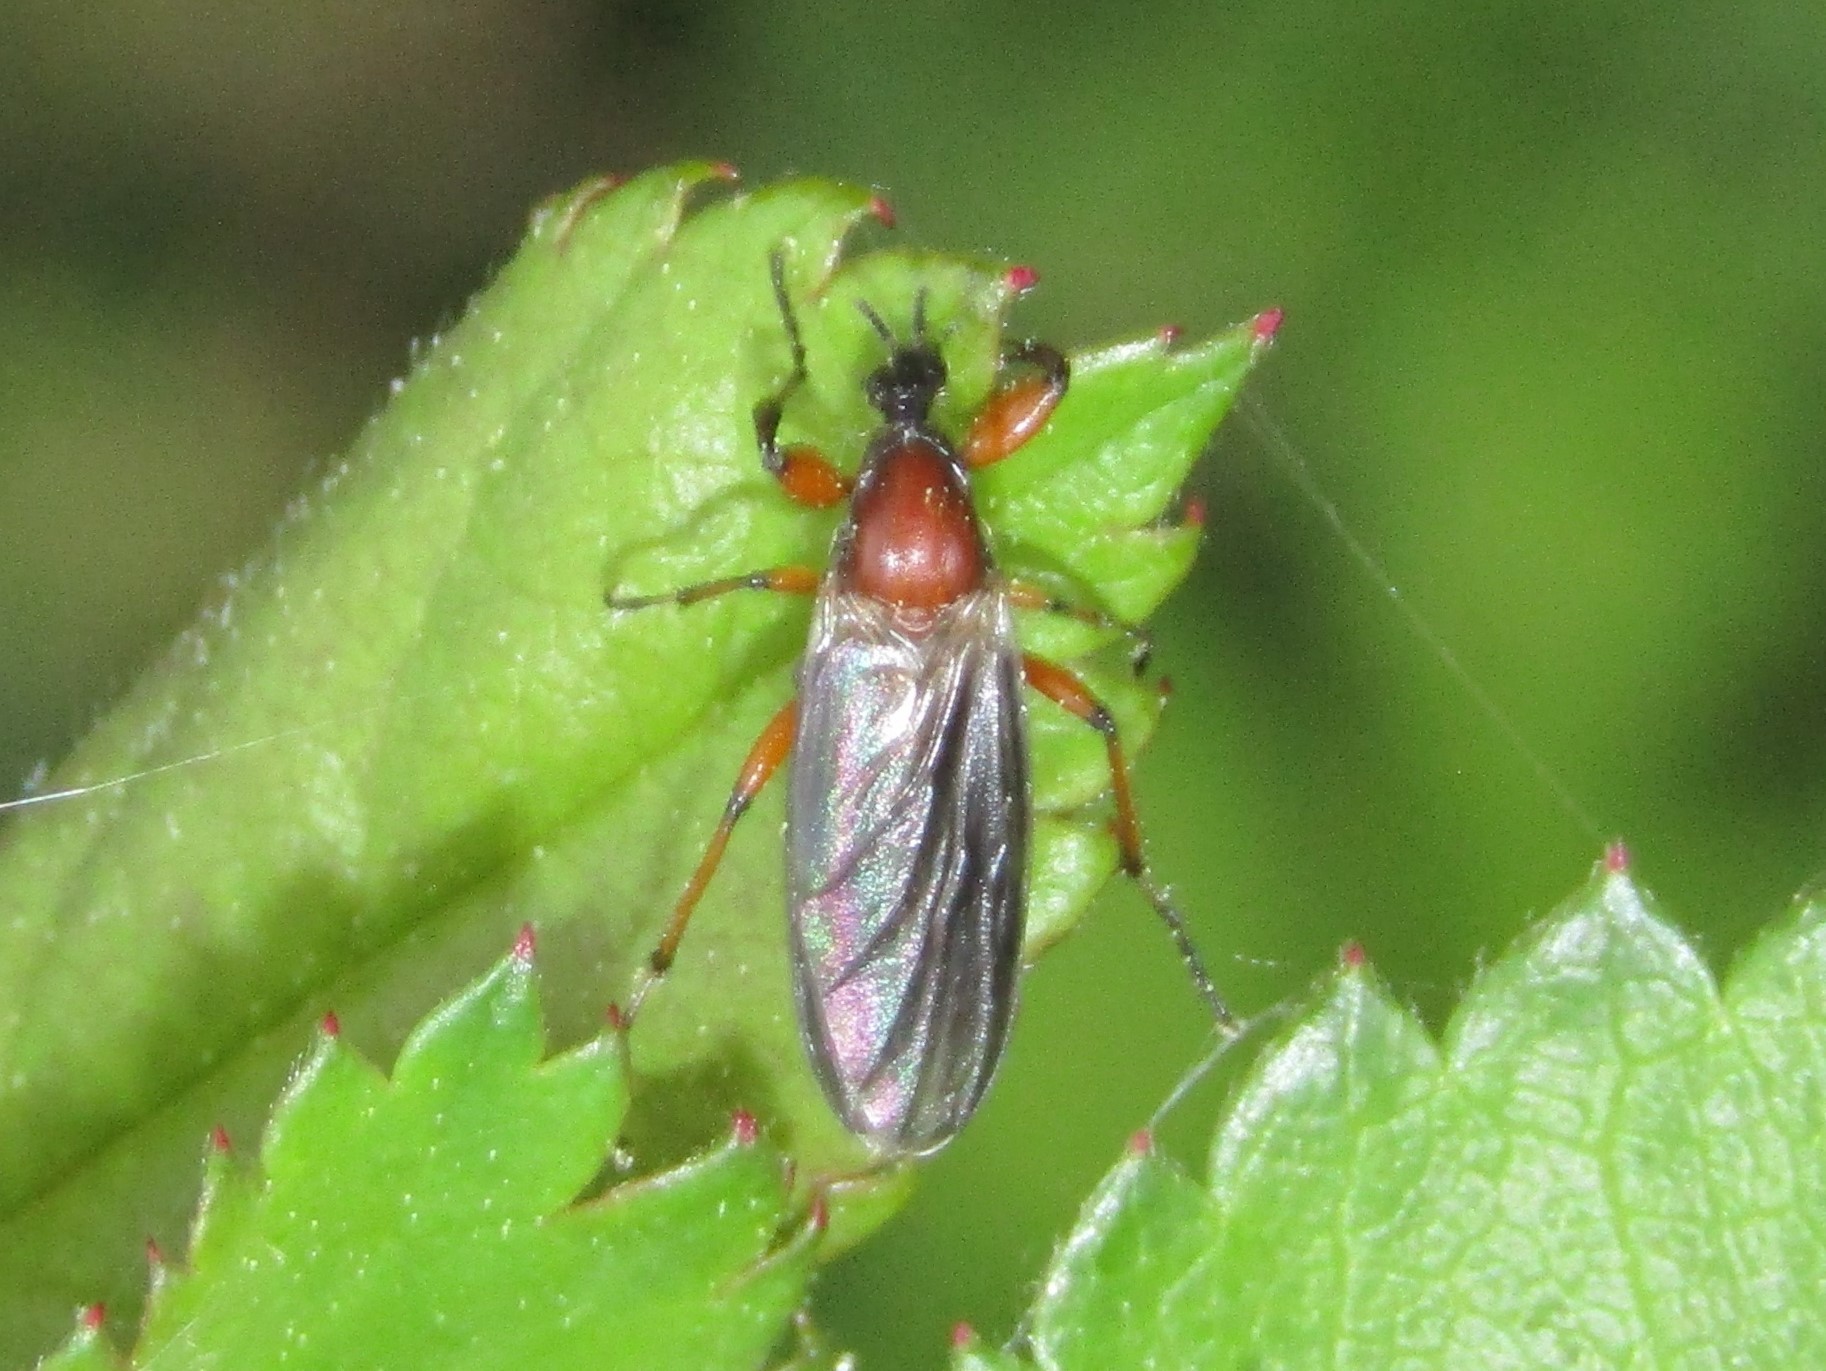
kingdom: Animalia
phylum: Arthropoda
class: Insecta
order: Diptera
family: Bibionidae
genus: Bibio
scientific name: Bibio
